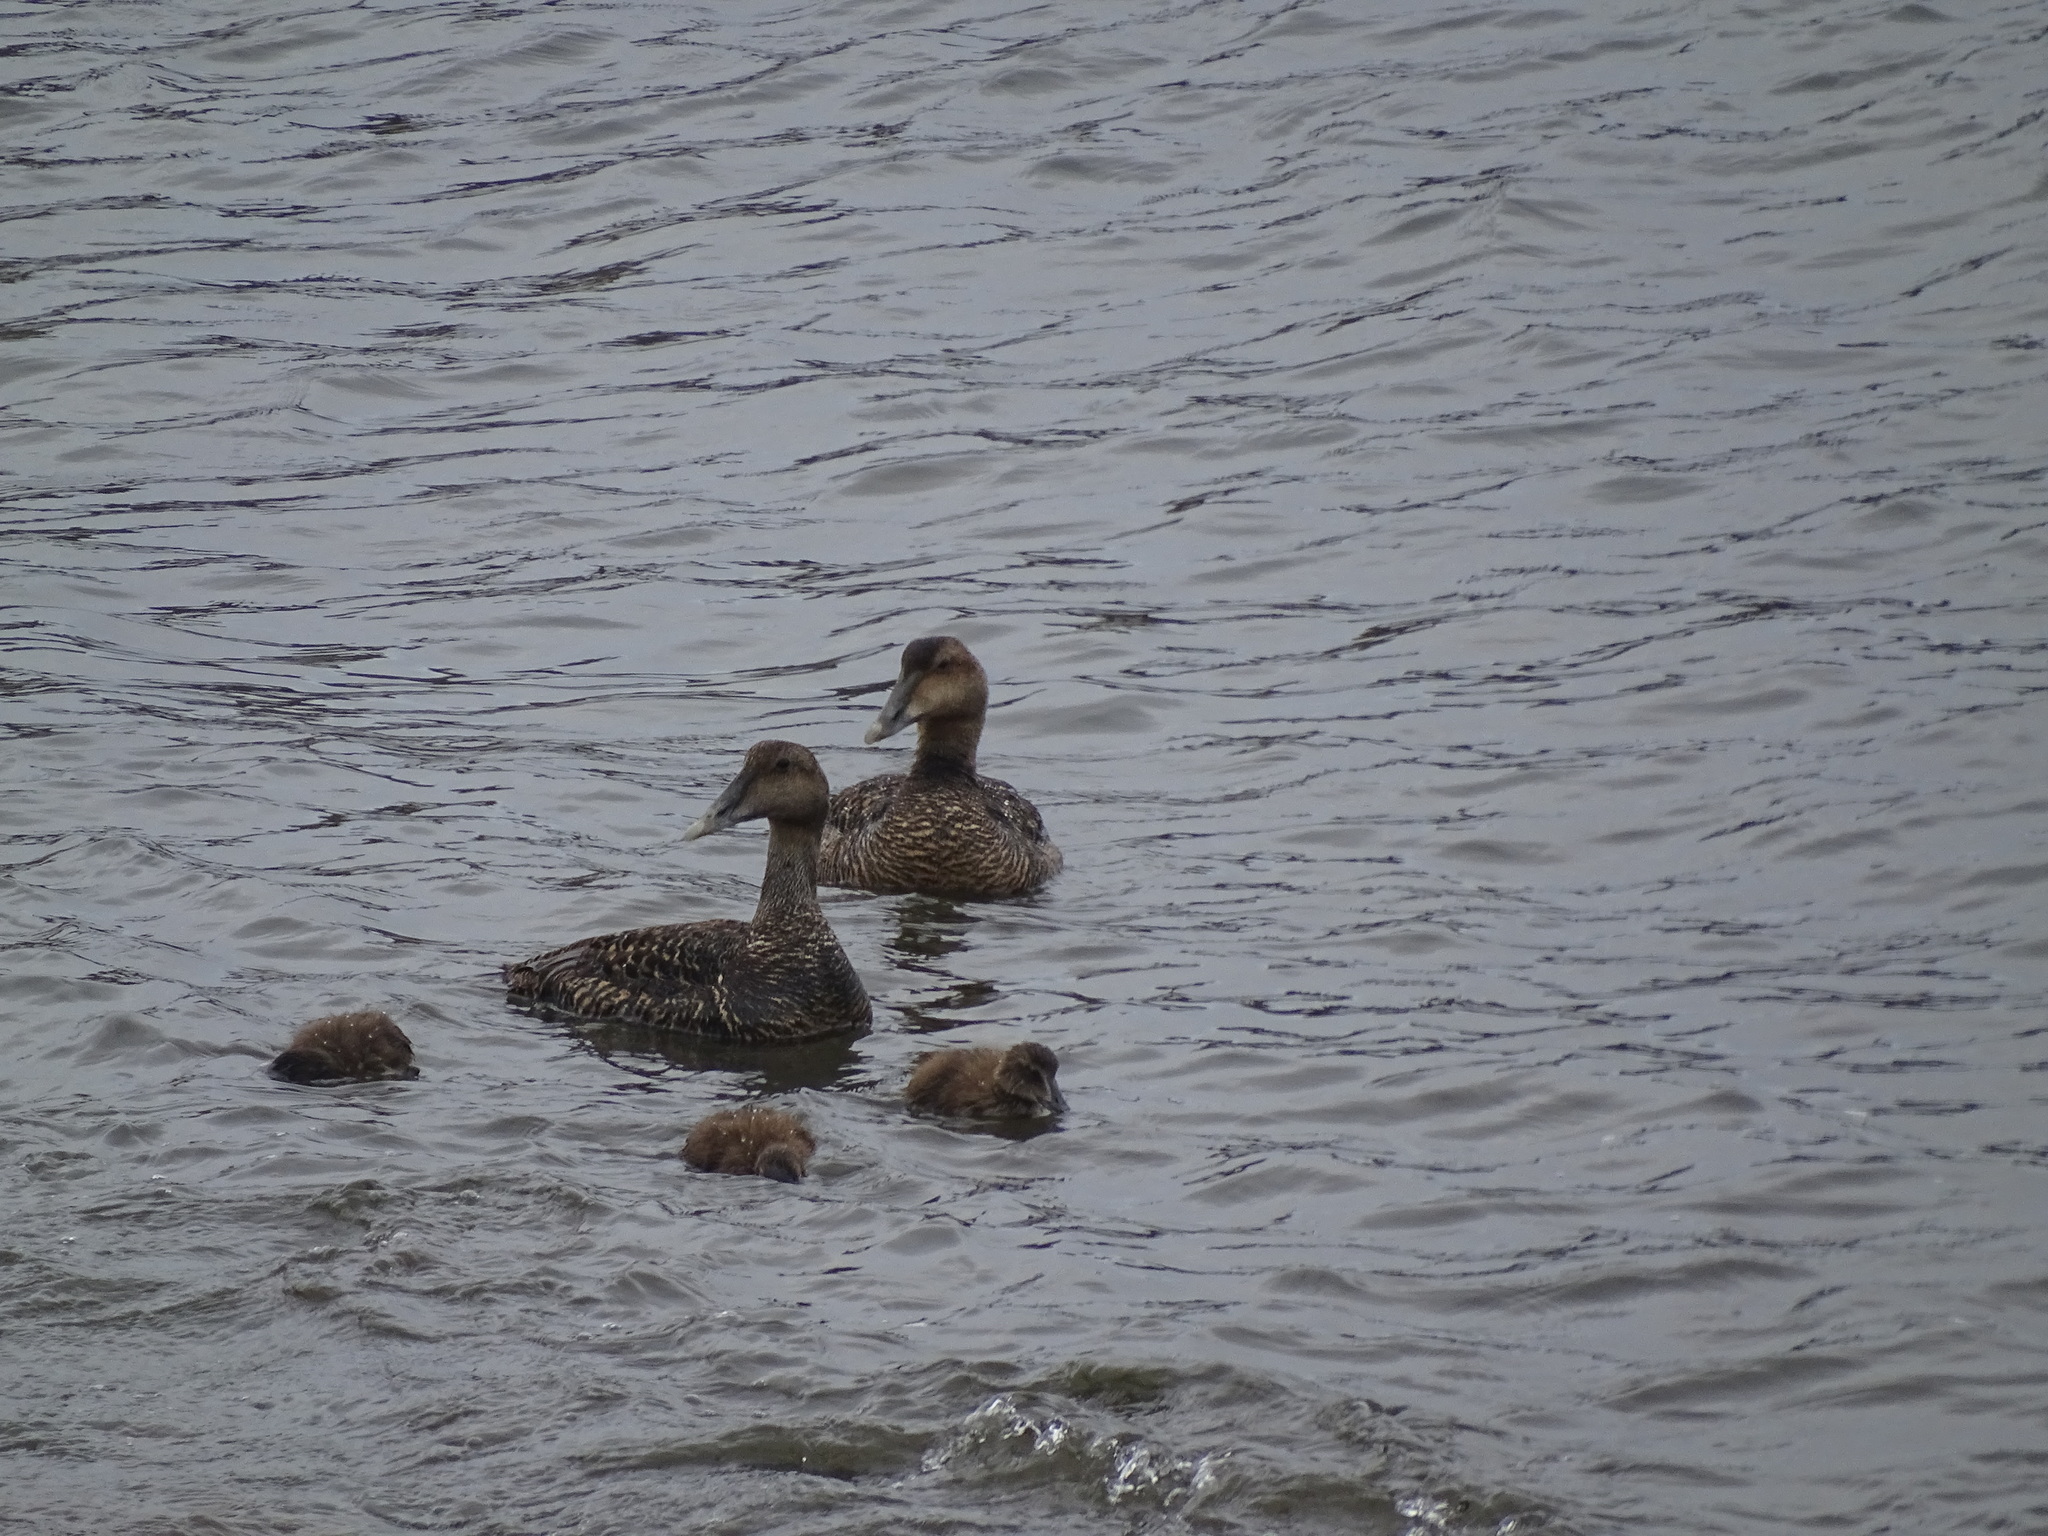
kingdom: Animalia
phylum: Chordata
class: Aves
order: Anseriformes
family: Anatidae
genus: Somateria
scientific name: Somateria mollissima
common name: Common eider
